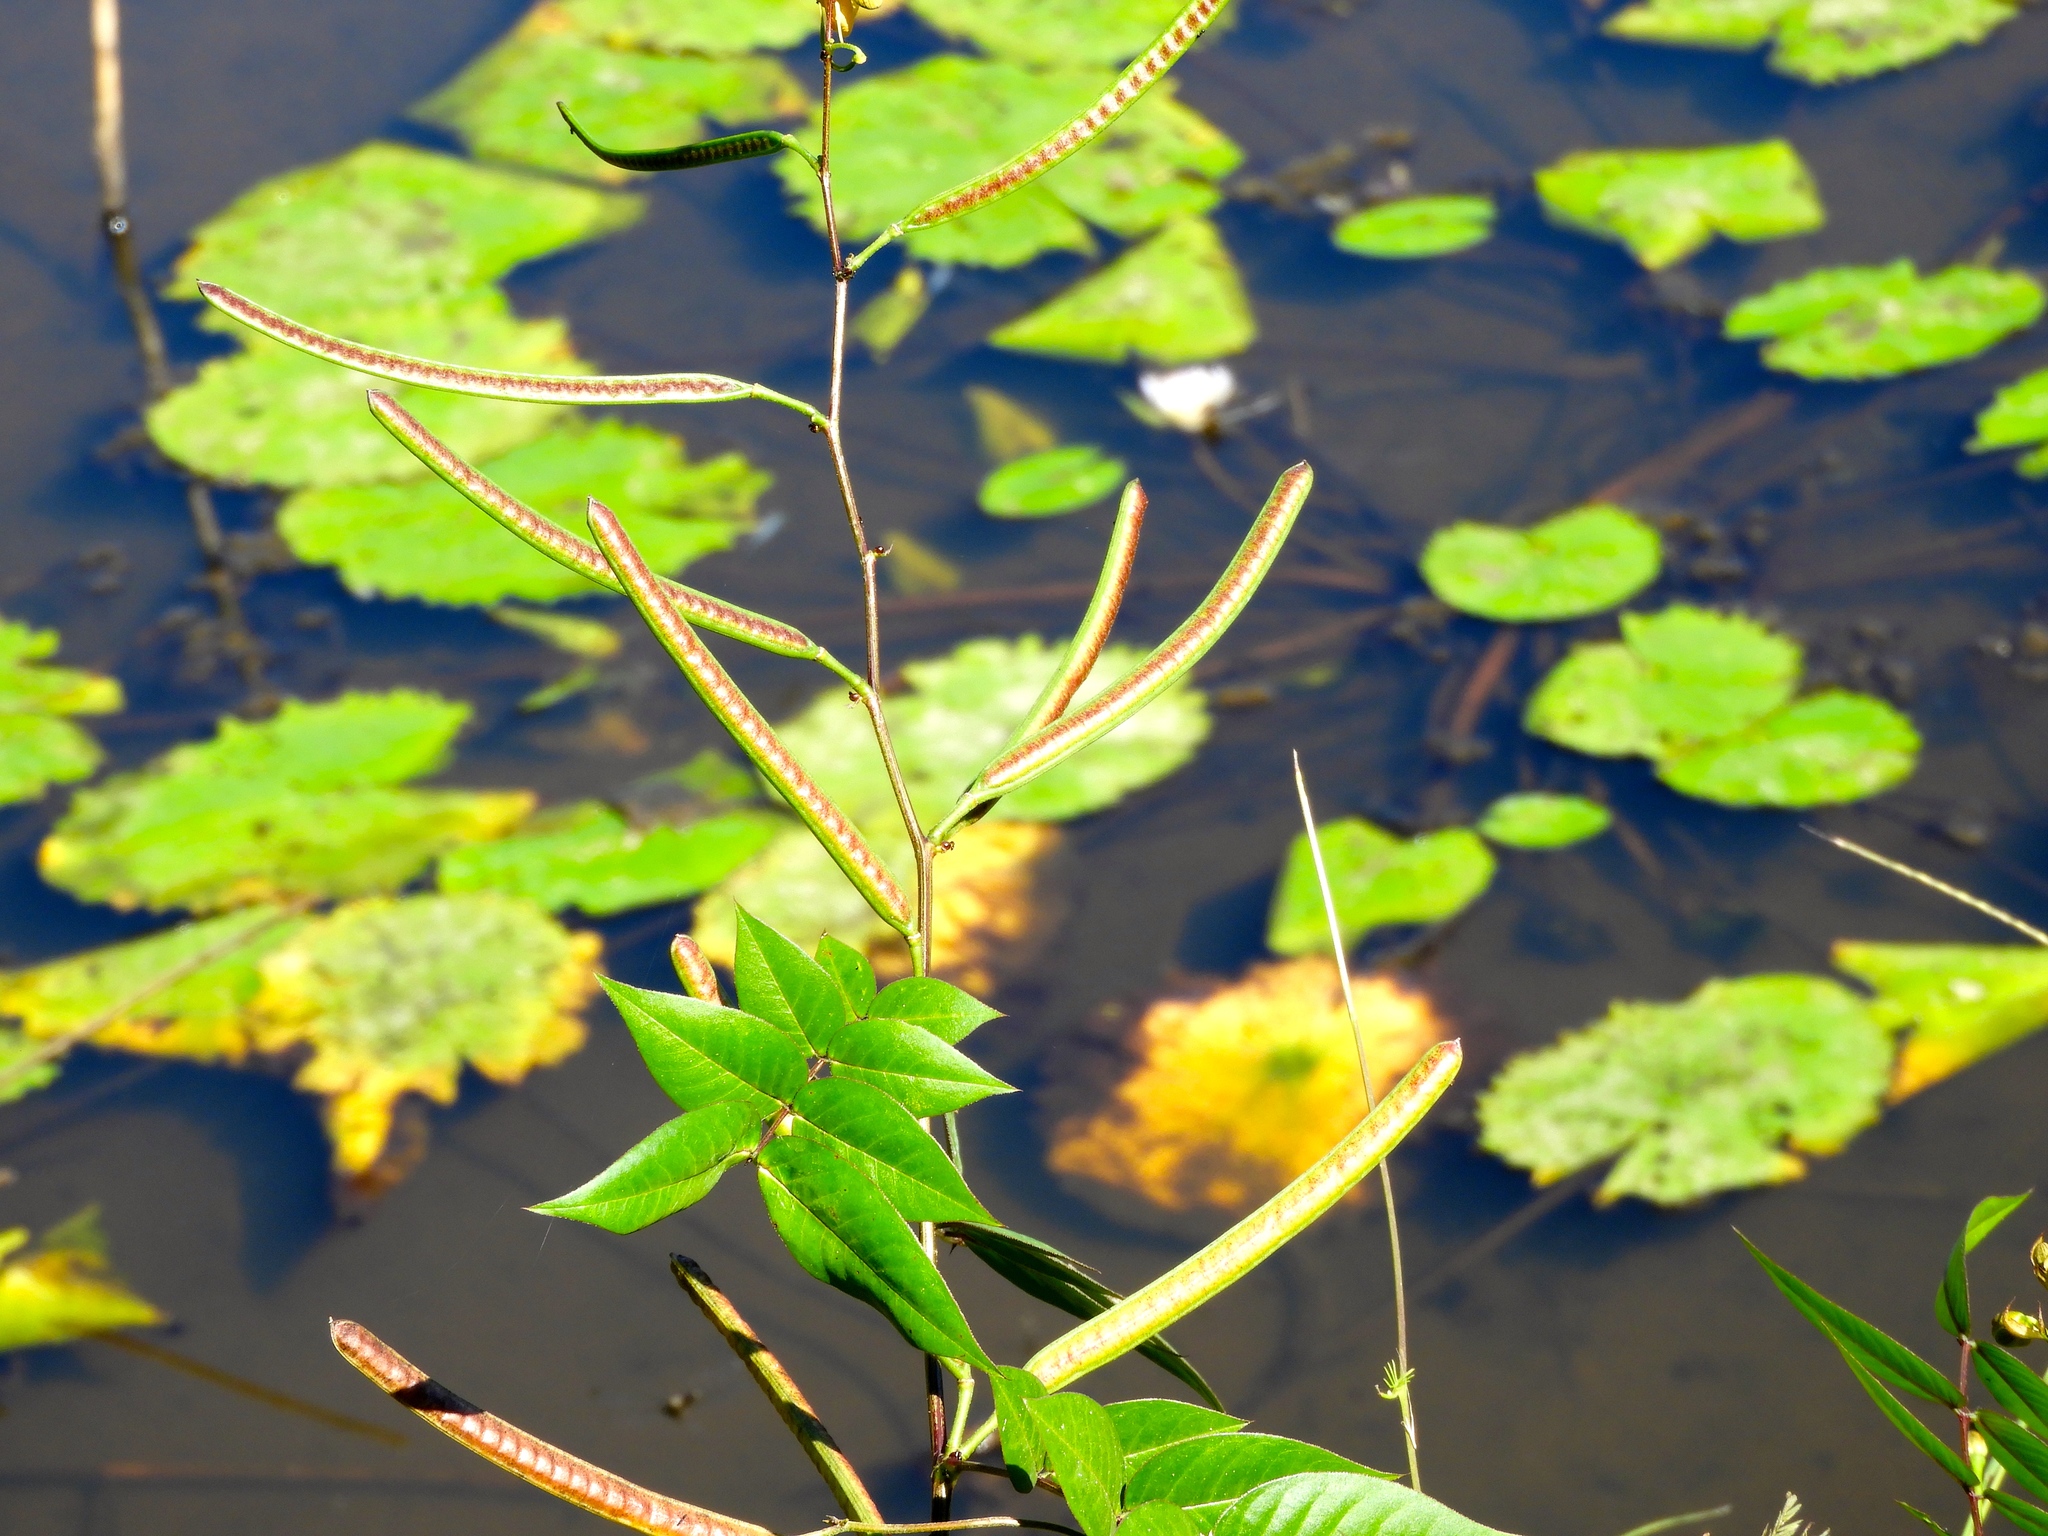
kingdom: Plantae
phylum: Tracheophyta
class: Magnoliopsida
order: Fabales
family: Fabaceae
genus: Senna
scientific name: Senna occidentalis
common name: Septicweed
